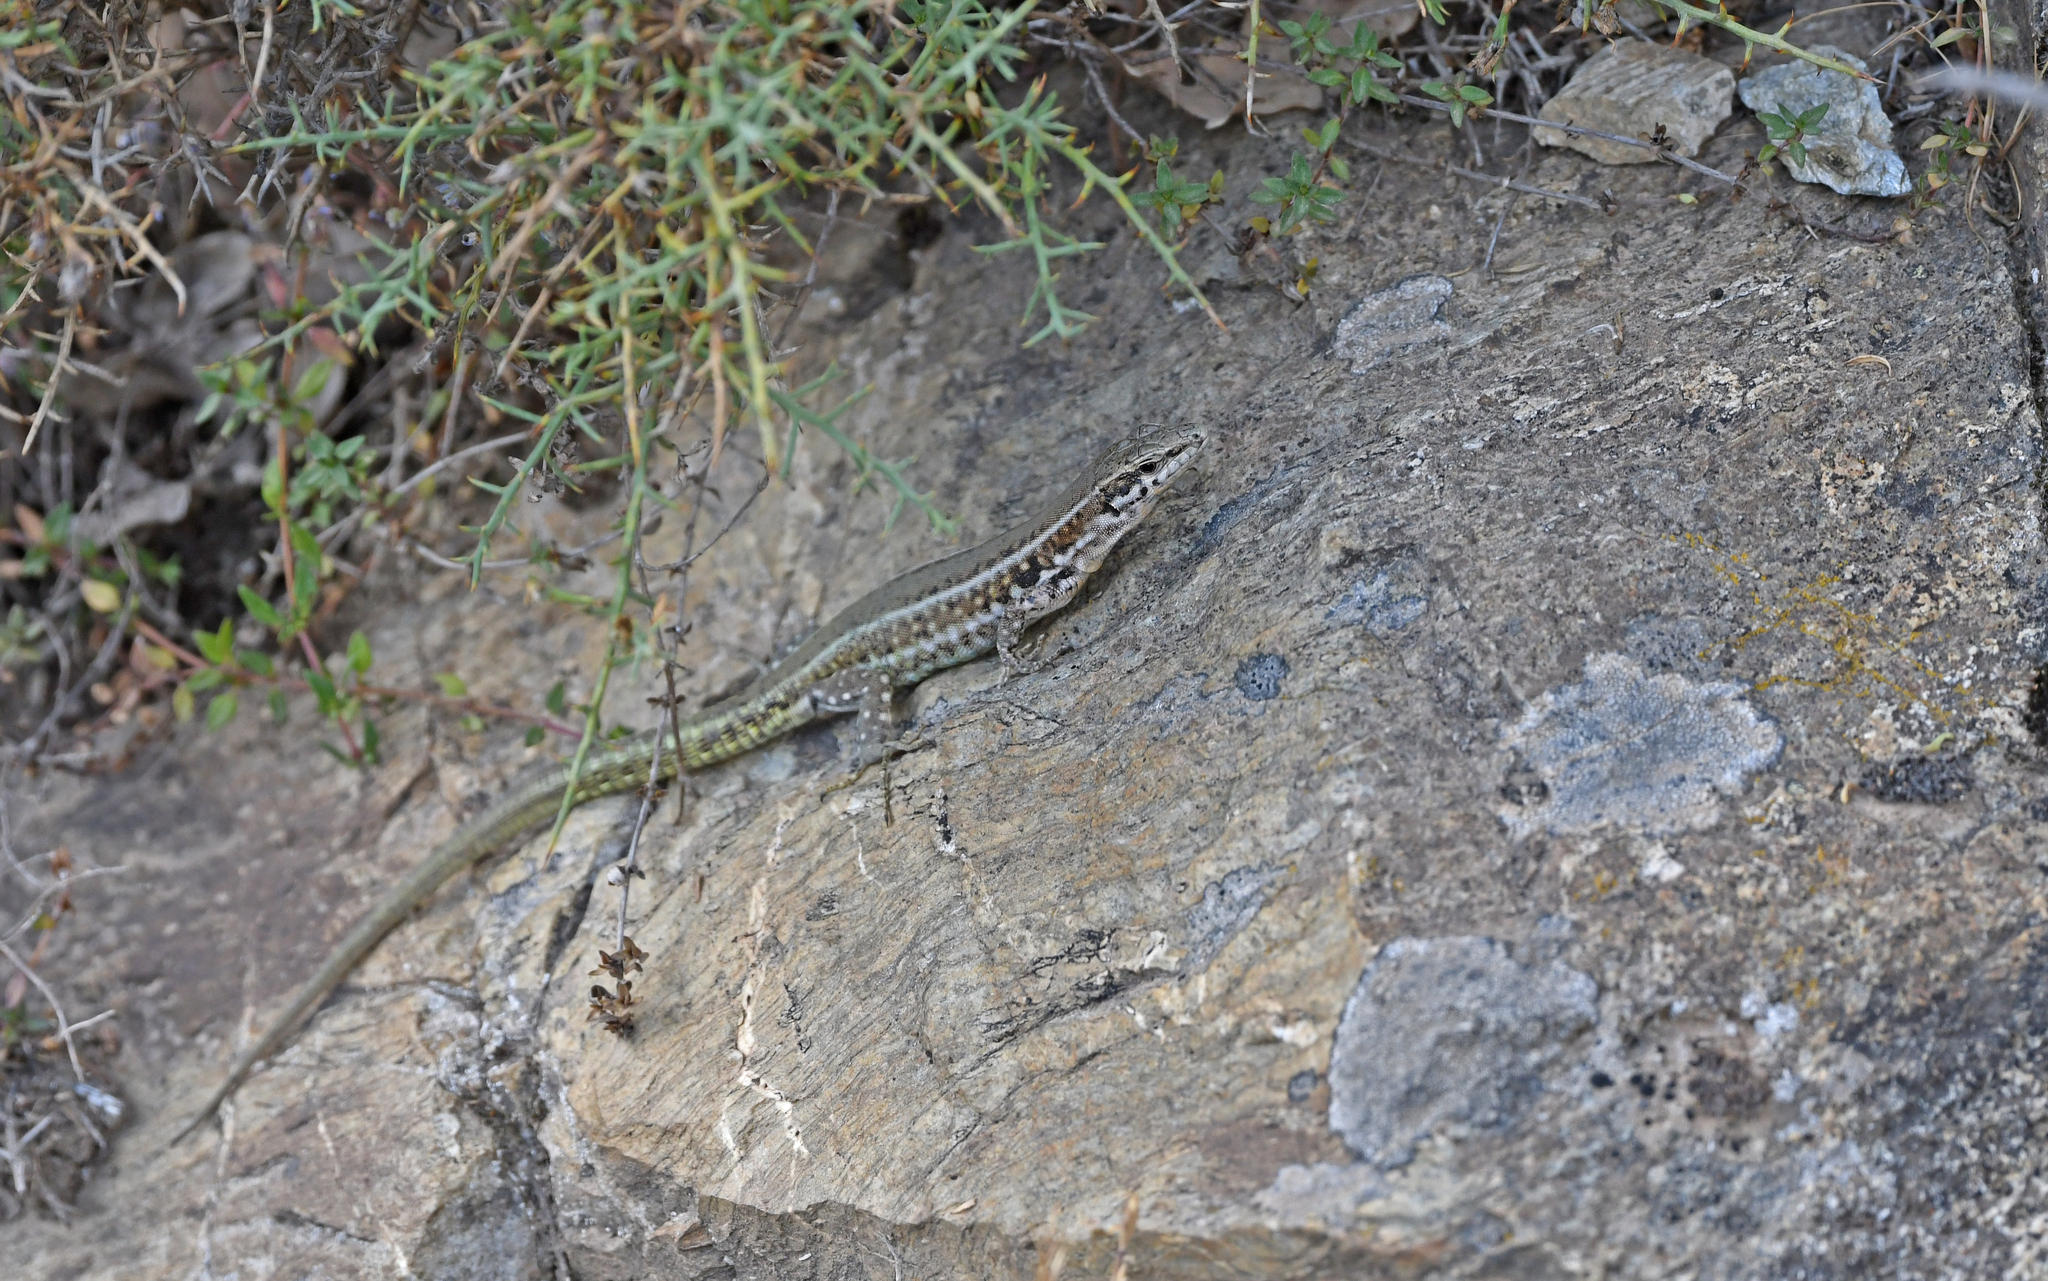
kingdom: Animalia
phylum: Chordata
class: Squamata
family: Lacertidae
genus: Podarcis
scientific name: Podarcis tiliguerta
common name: Tyrrhenian wall lizard
